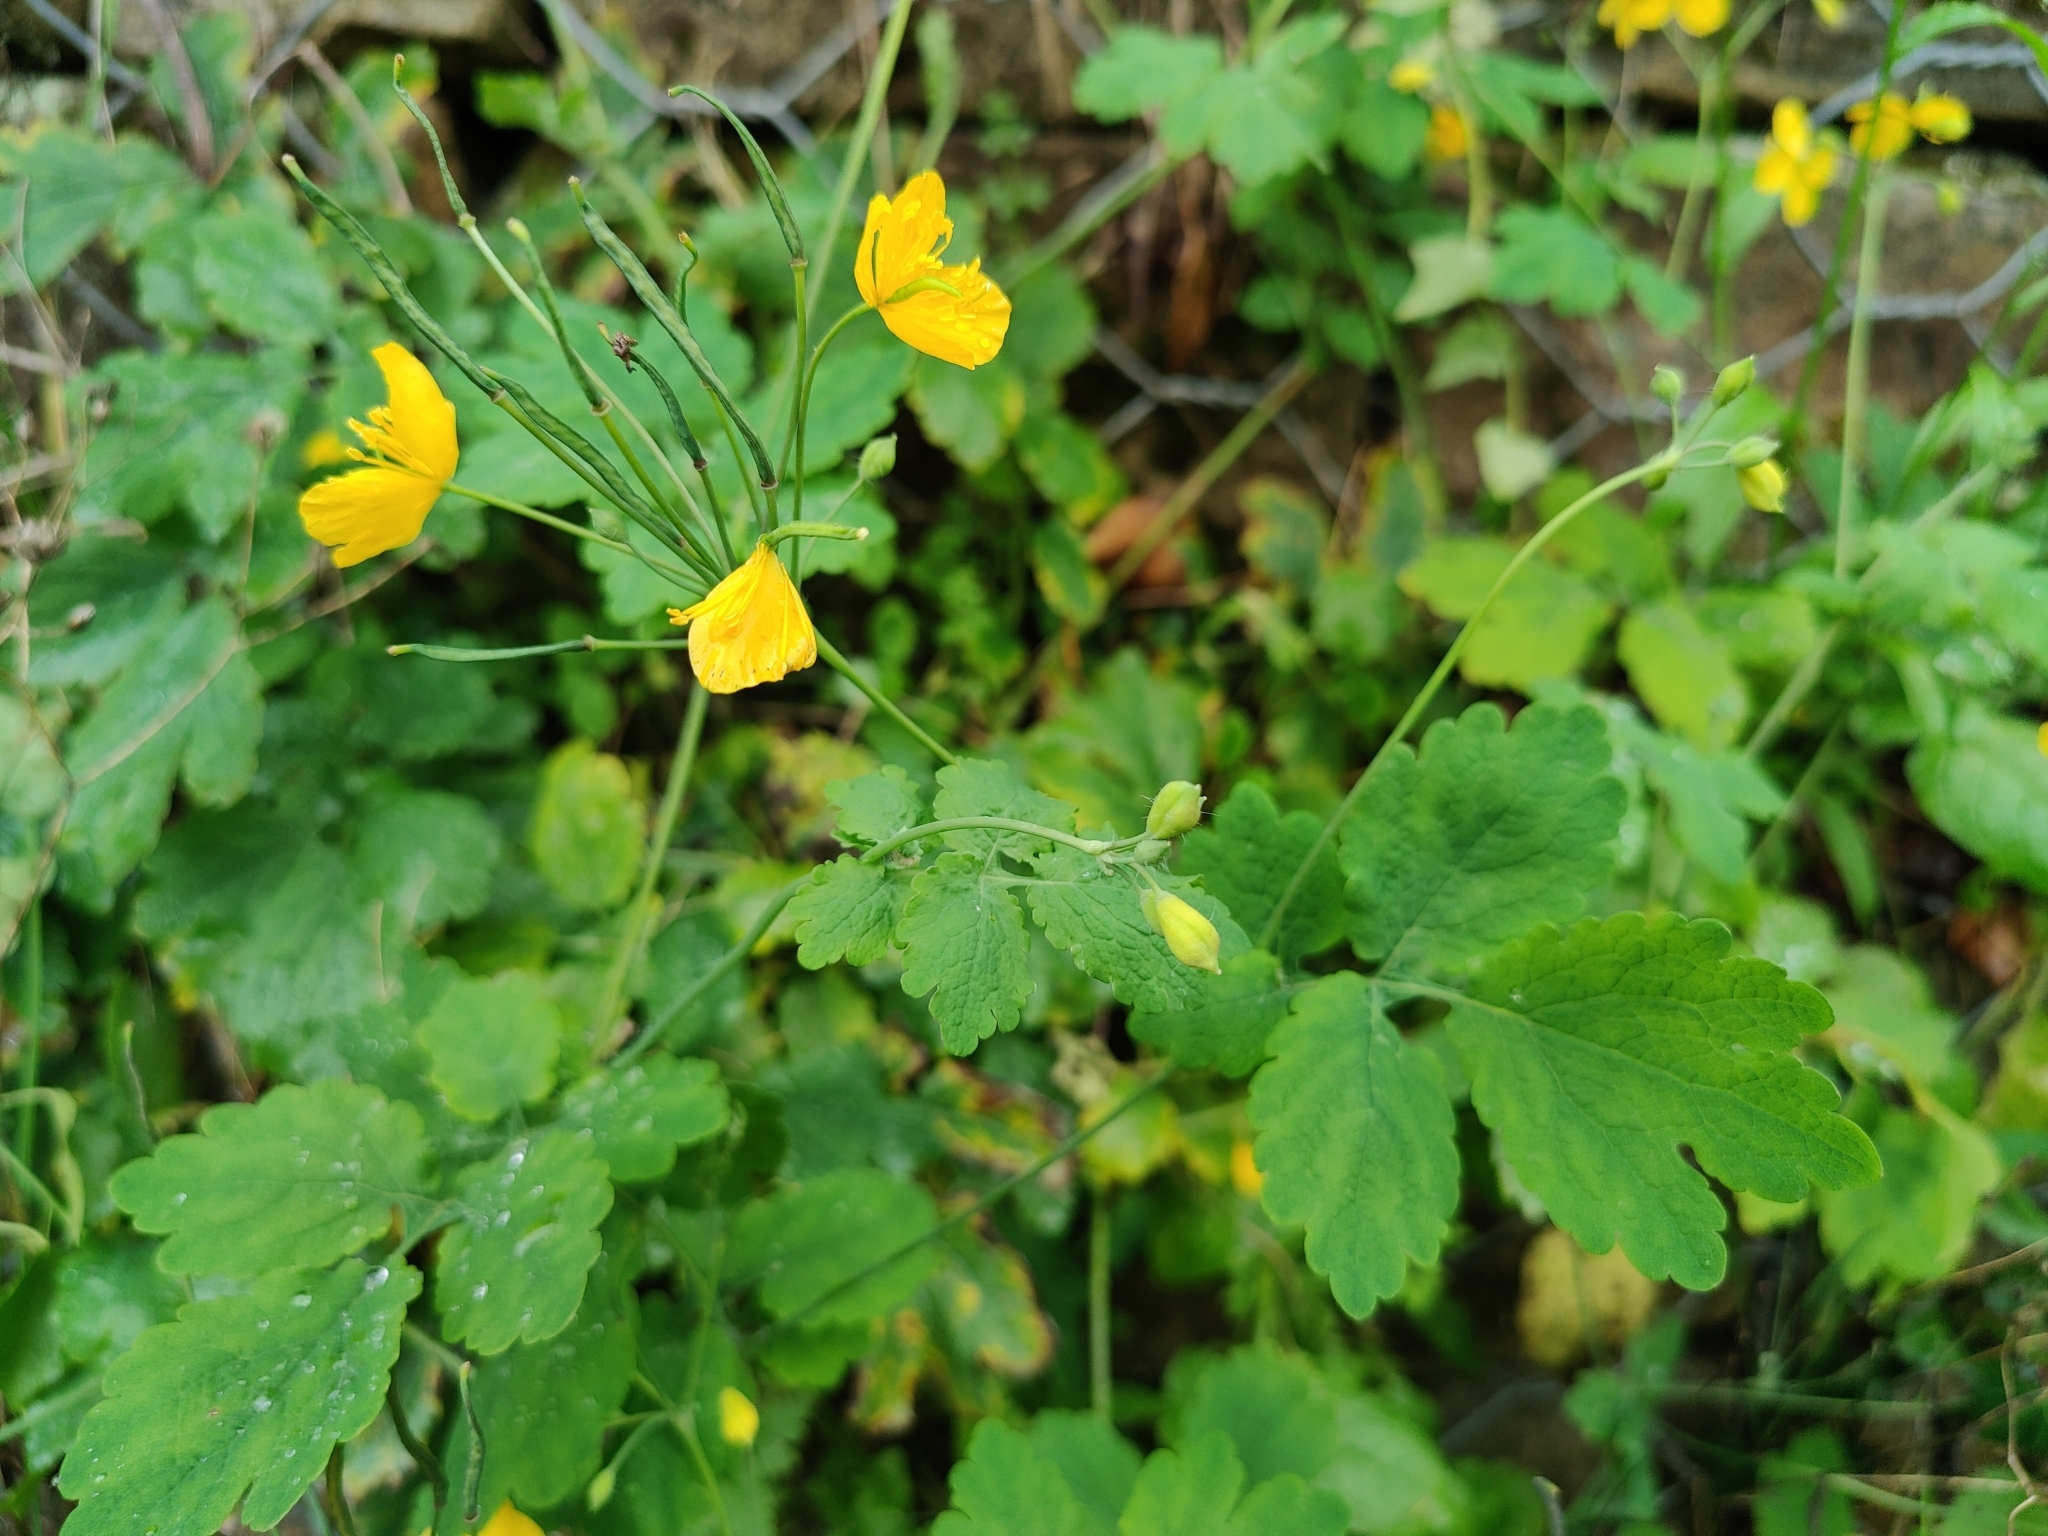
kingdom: Plantae
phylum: Tracheophyta
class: Magnoliopsida
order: Ranunculales
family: Papaveraceae
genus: Chelidonium
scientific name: Chelidonium majus
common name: Greater celandine
